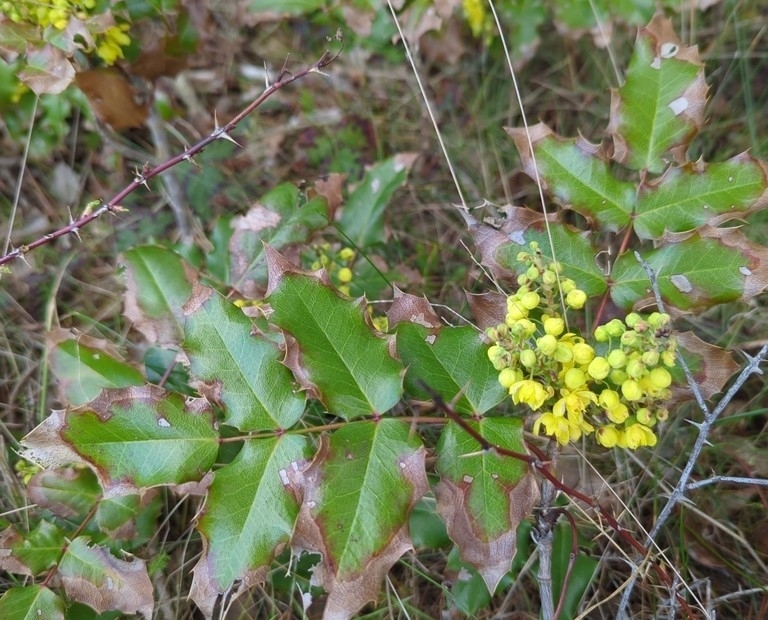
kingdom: Plantae
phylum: Tracheophyta
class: Magnoliopsida
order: Ranunculales
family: Berberidaceae
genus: Mahonia
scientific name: Mahonia aquifolium
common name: Oregon-grape
